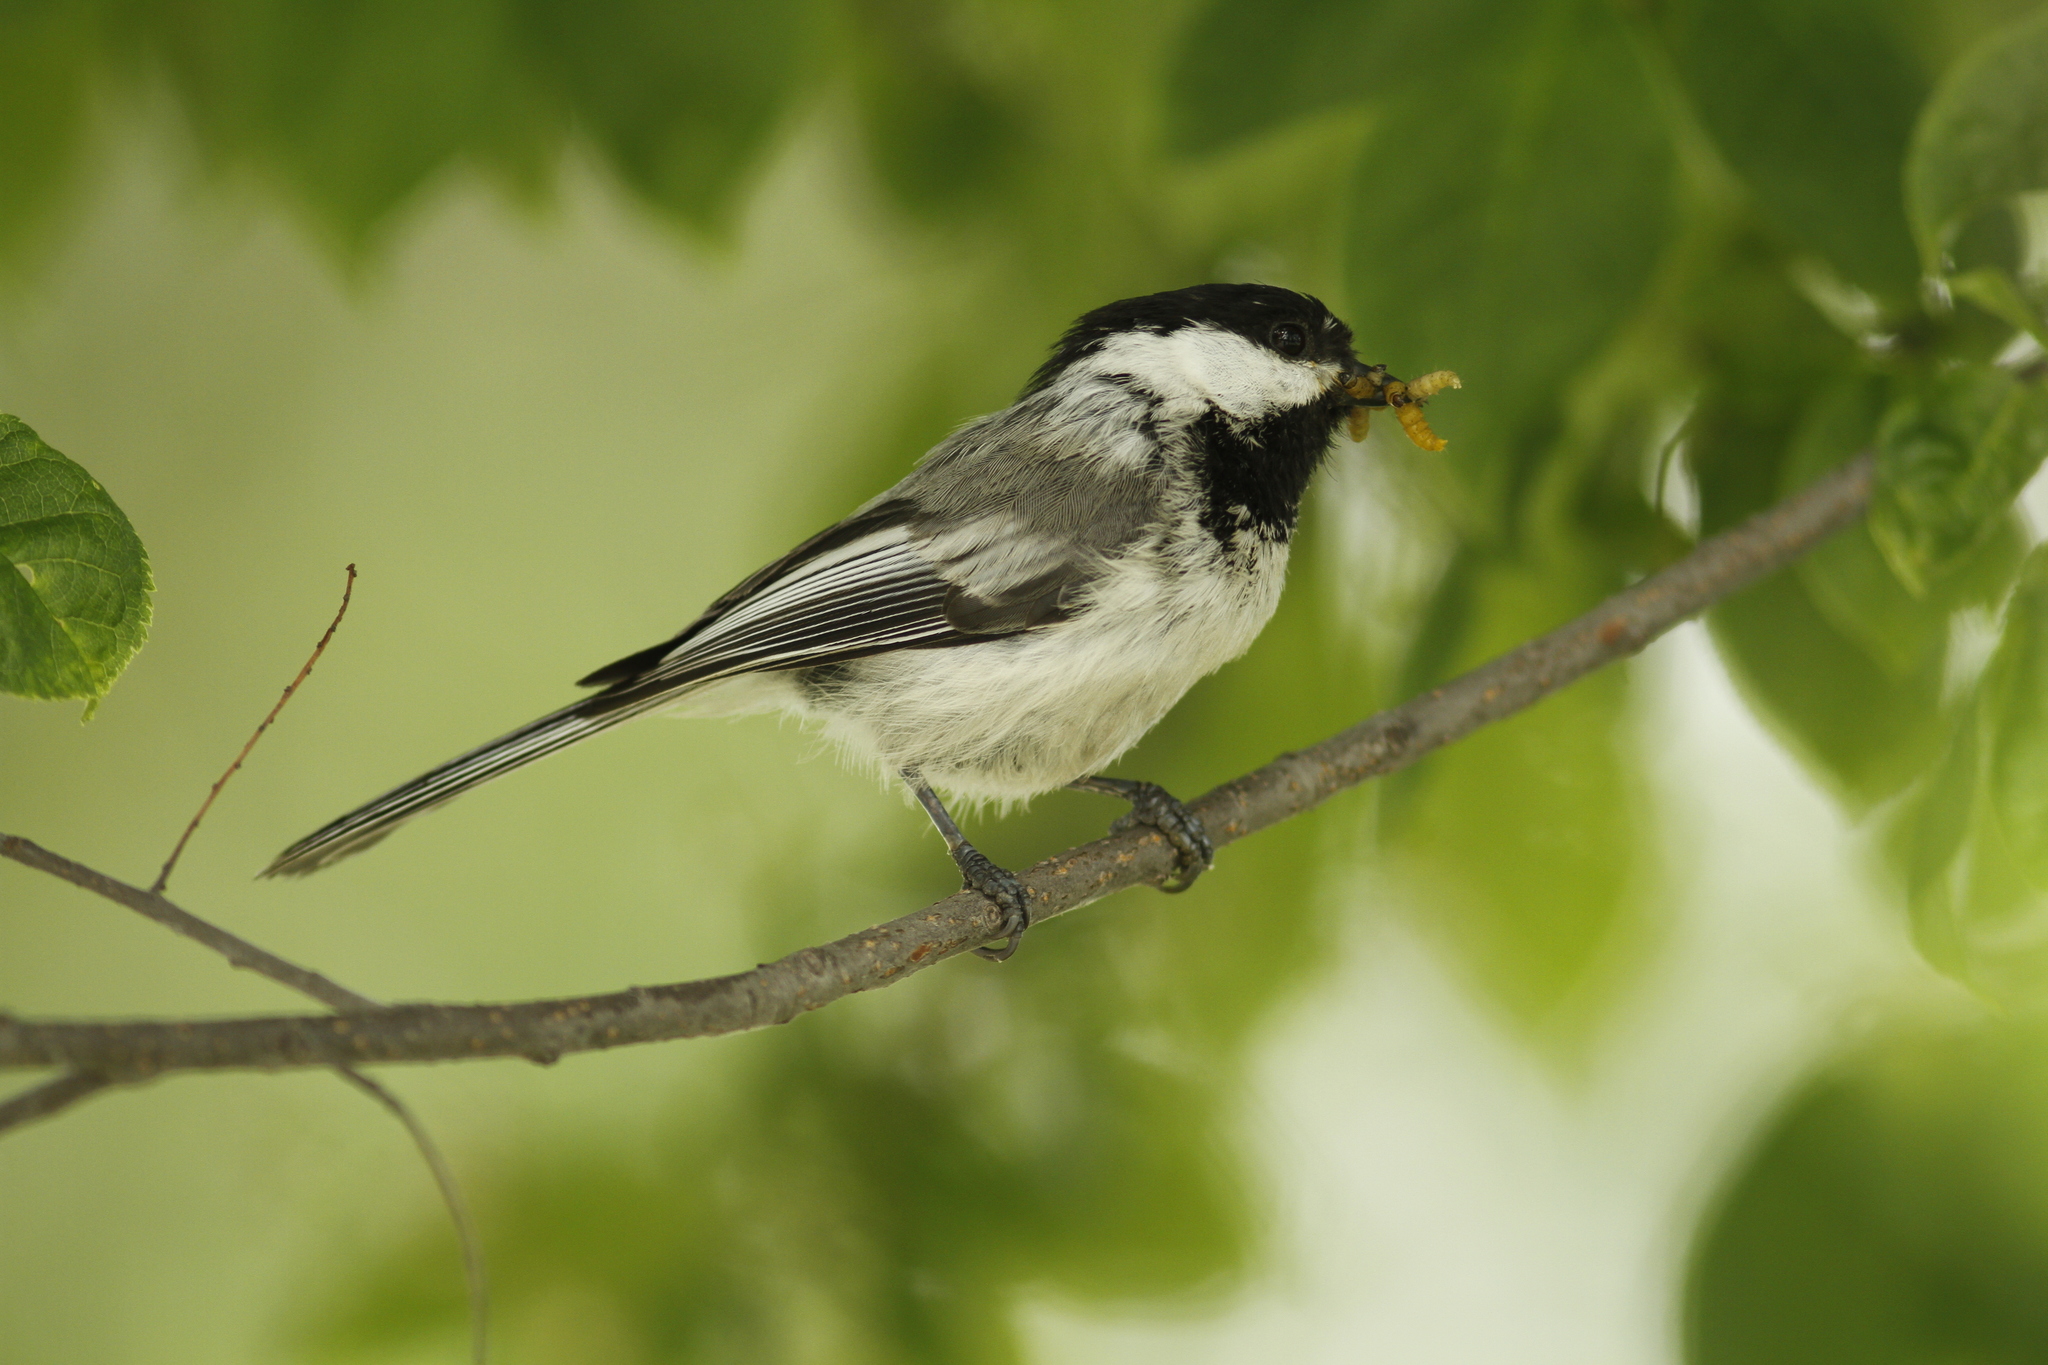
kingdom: Animalia
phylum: Chordata
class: Aves
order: Passeriformes
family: Paridae
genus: Poecile
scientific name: Poecile atricapillus
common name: Black-capped chickadee
